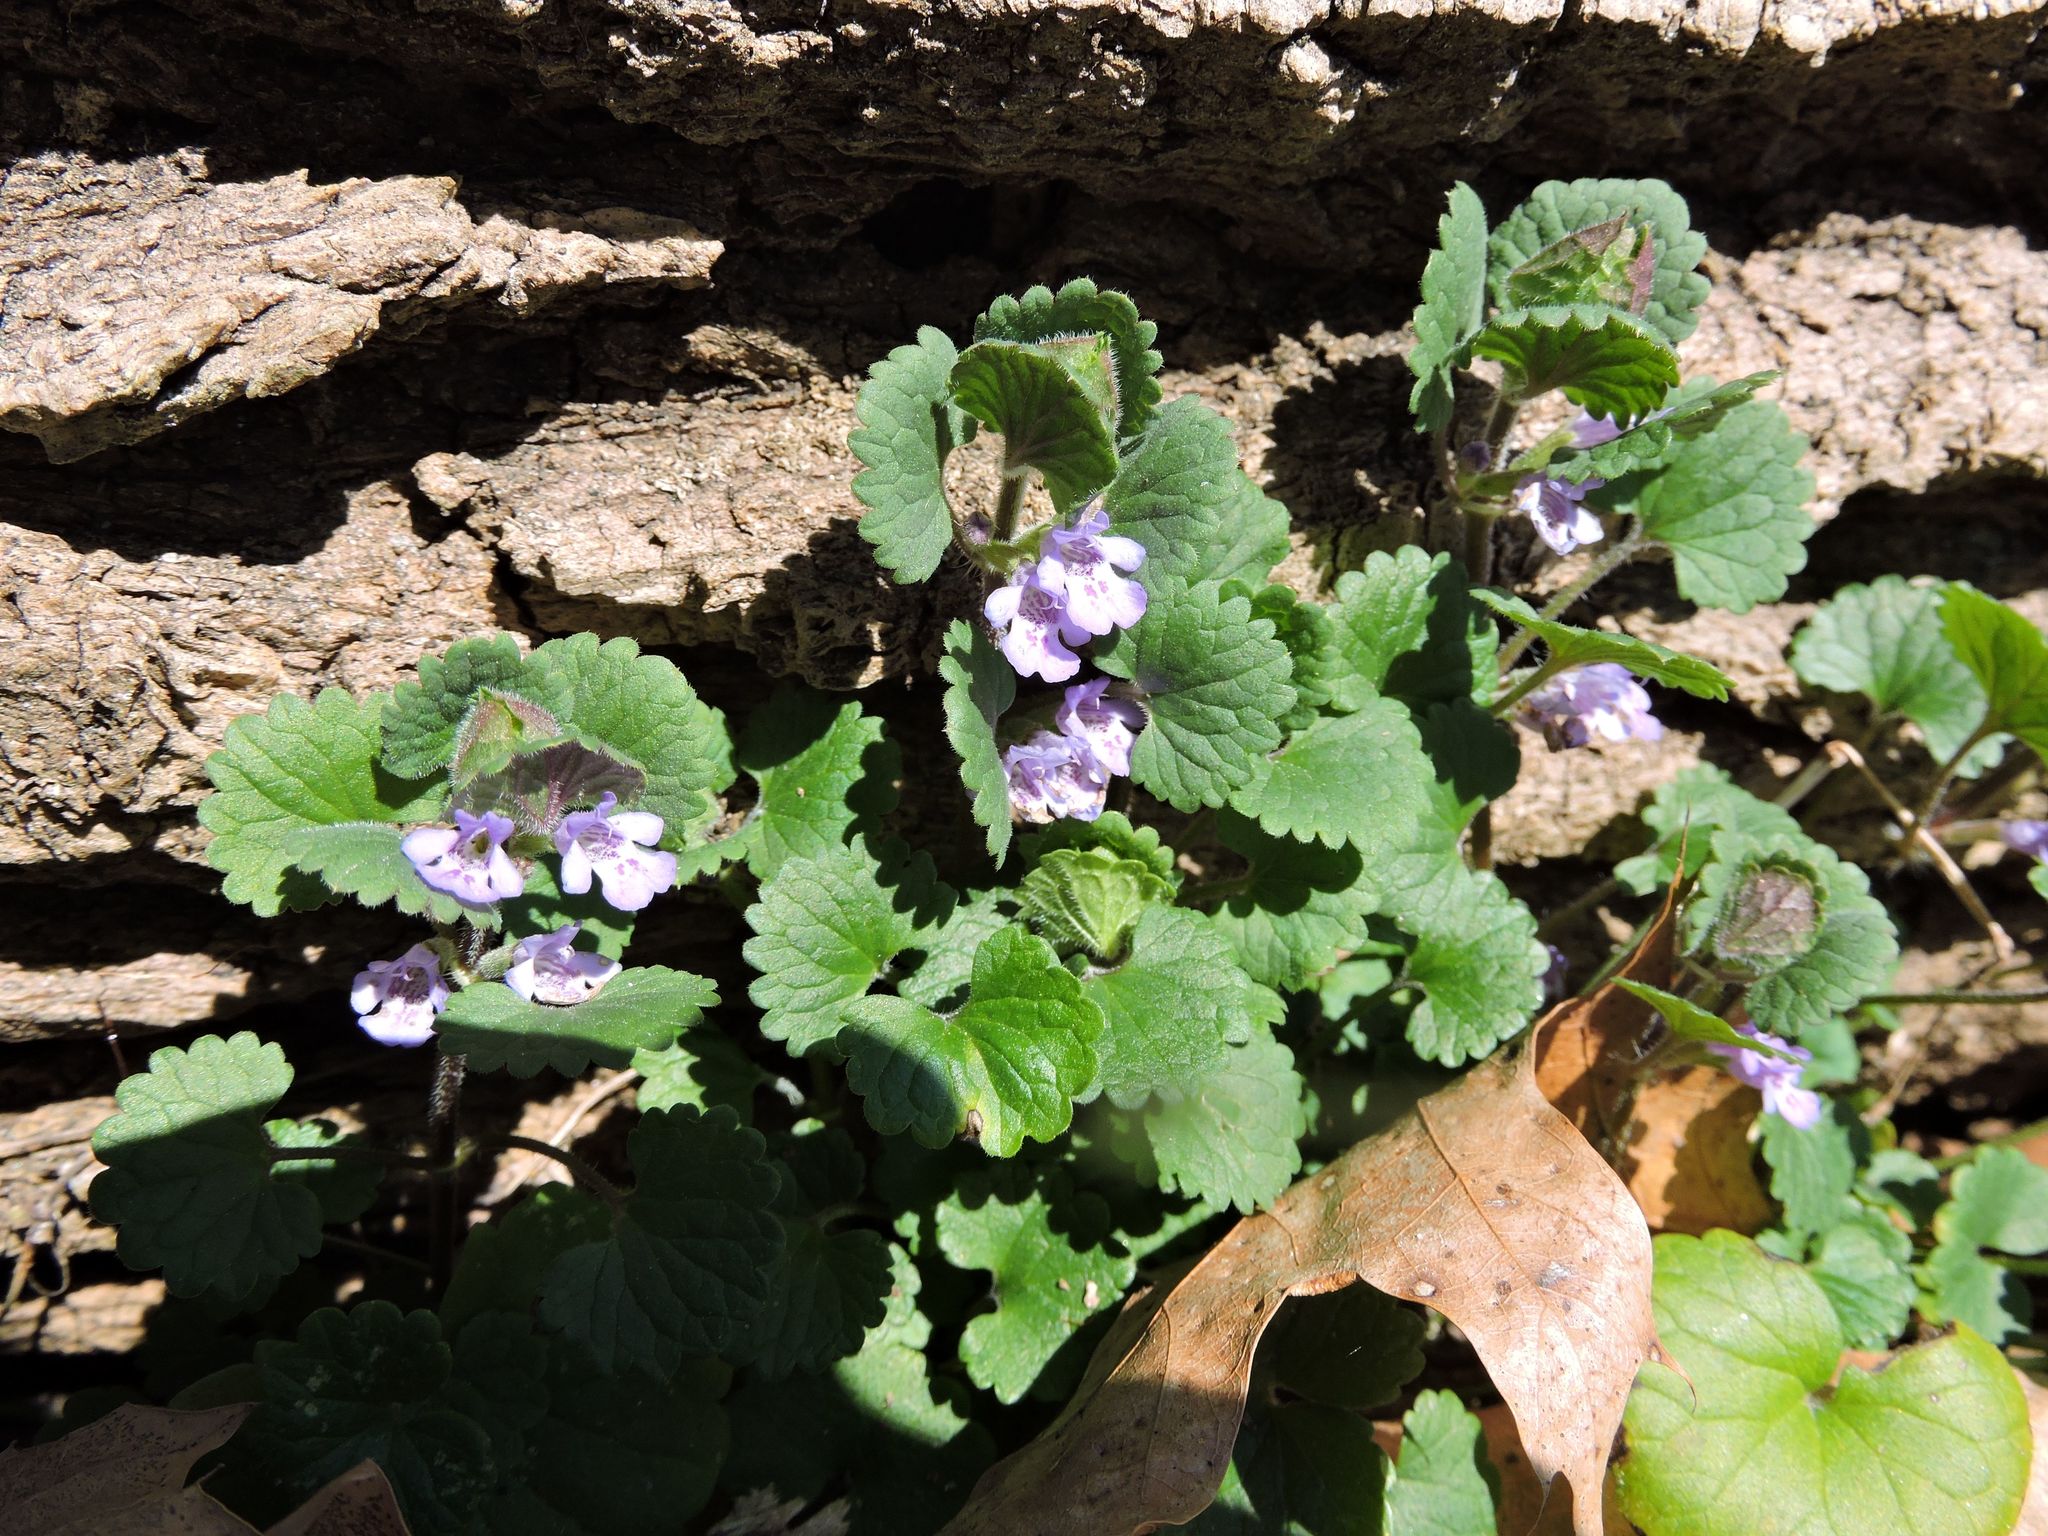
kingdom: Plantae
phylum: Tracheophyta
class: Magnoliopsida
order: Lamiales
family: Lamiaceae
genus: Glechoma
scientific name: Glechoma hederacea
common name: Ground ivy
